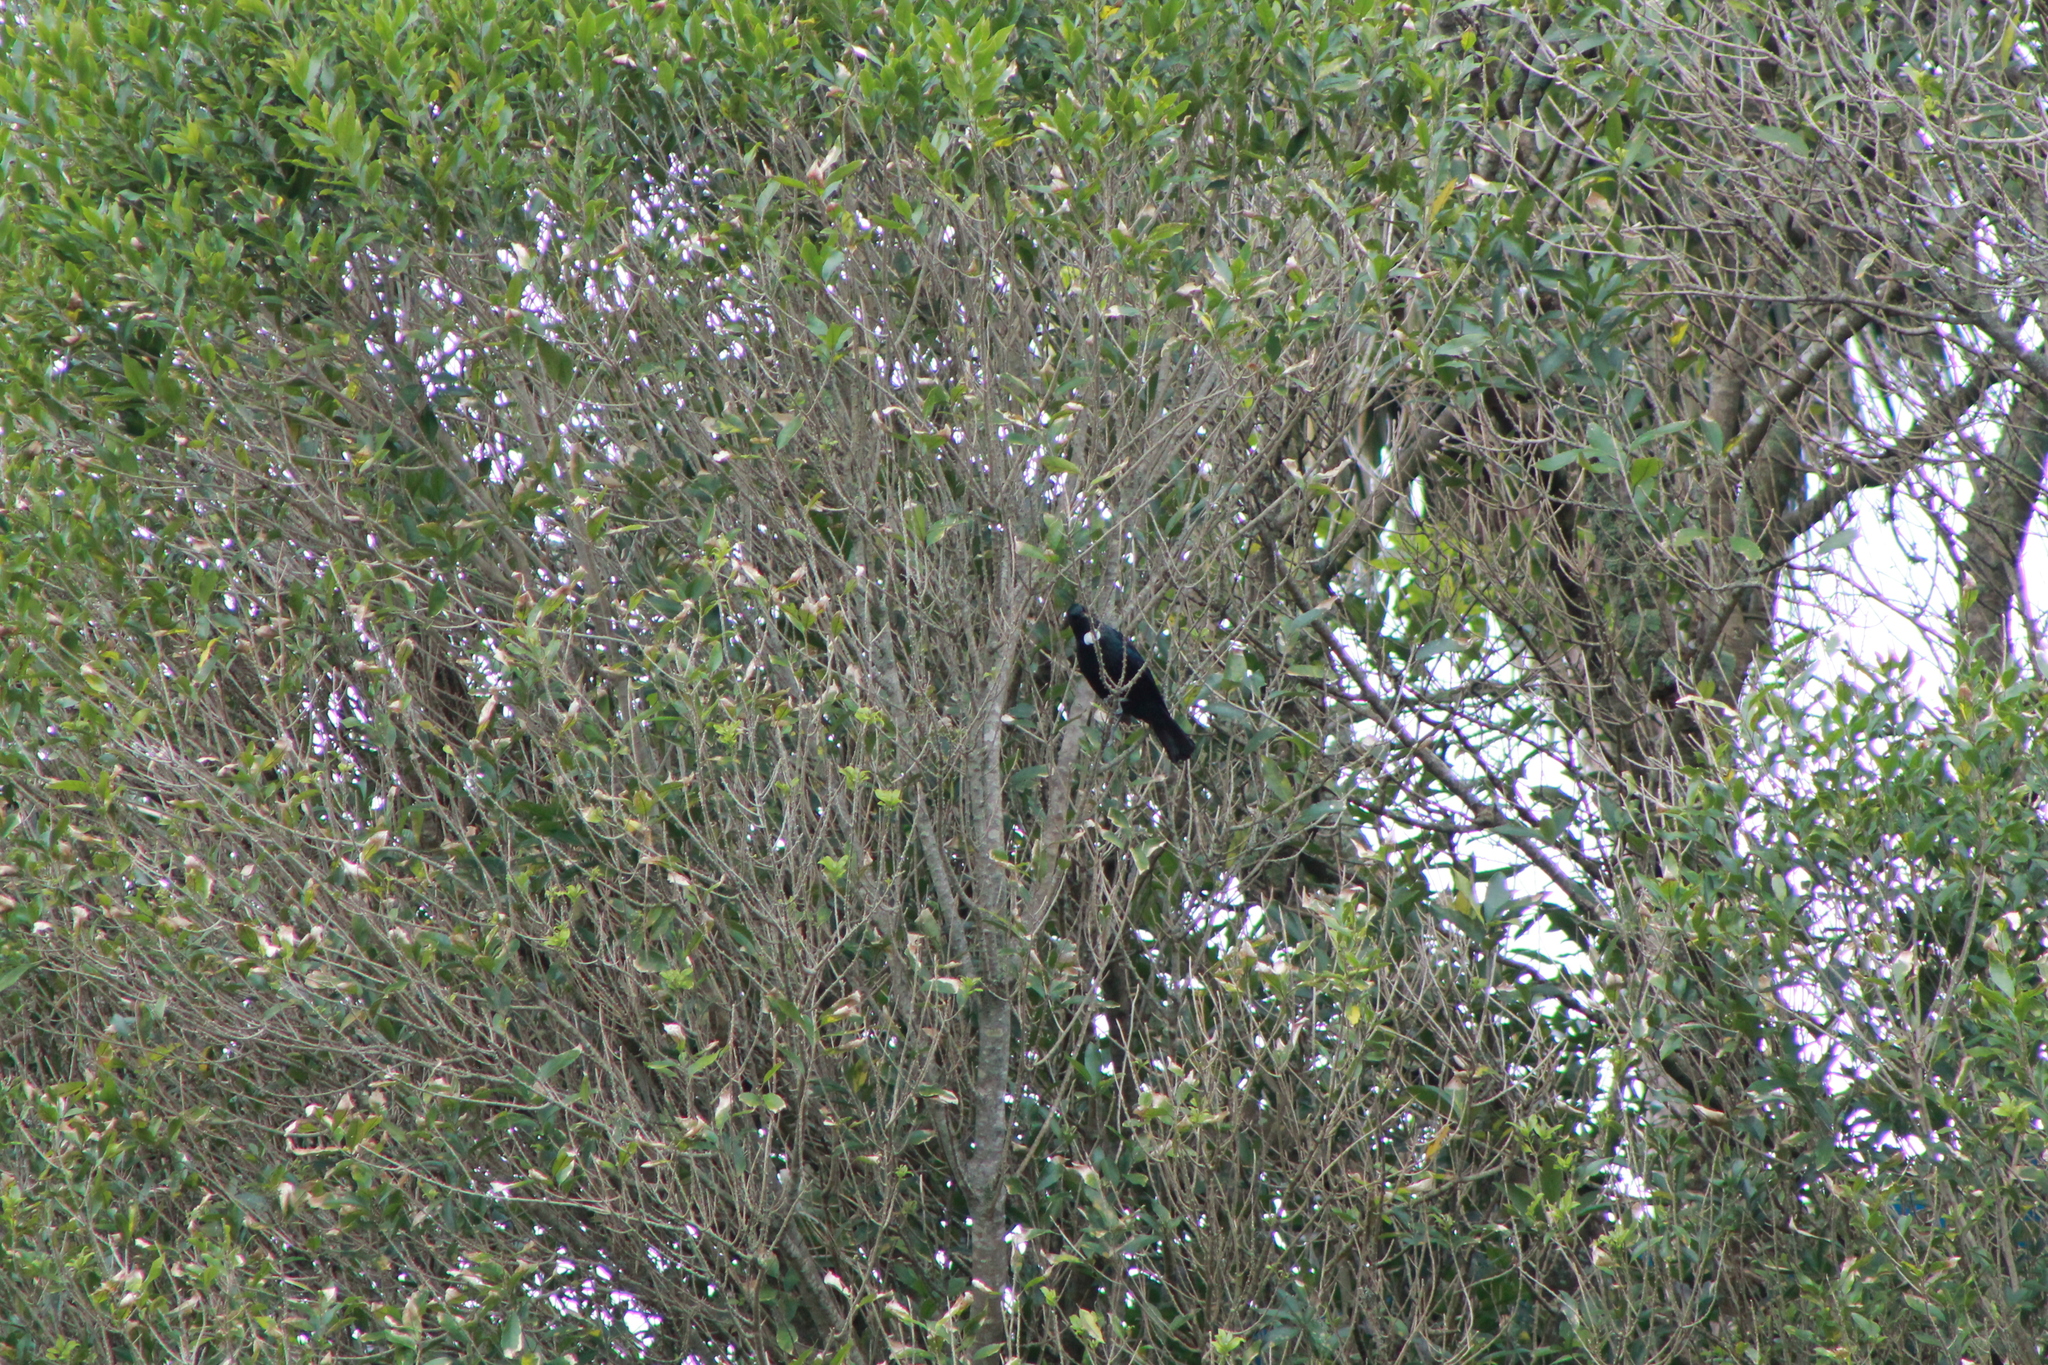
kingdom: Animalia
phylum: Chordata
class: Aves
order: Passeriformes
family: Meliphagidae
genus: Prosthemadera
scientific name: Prosthemadera novaeseelandiae
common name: Tui
